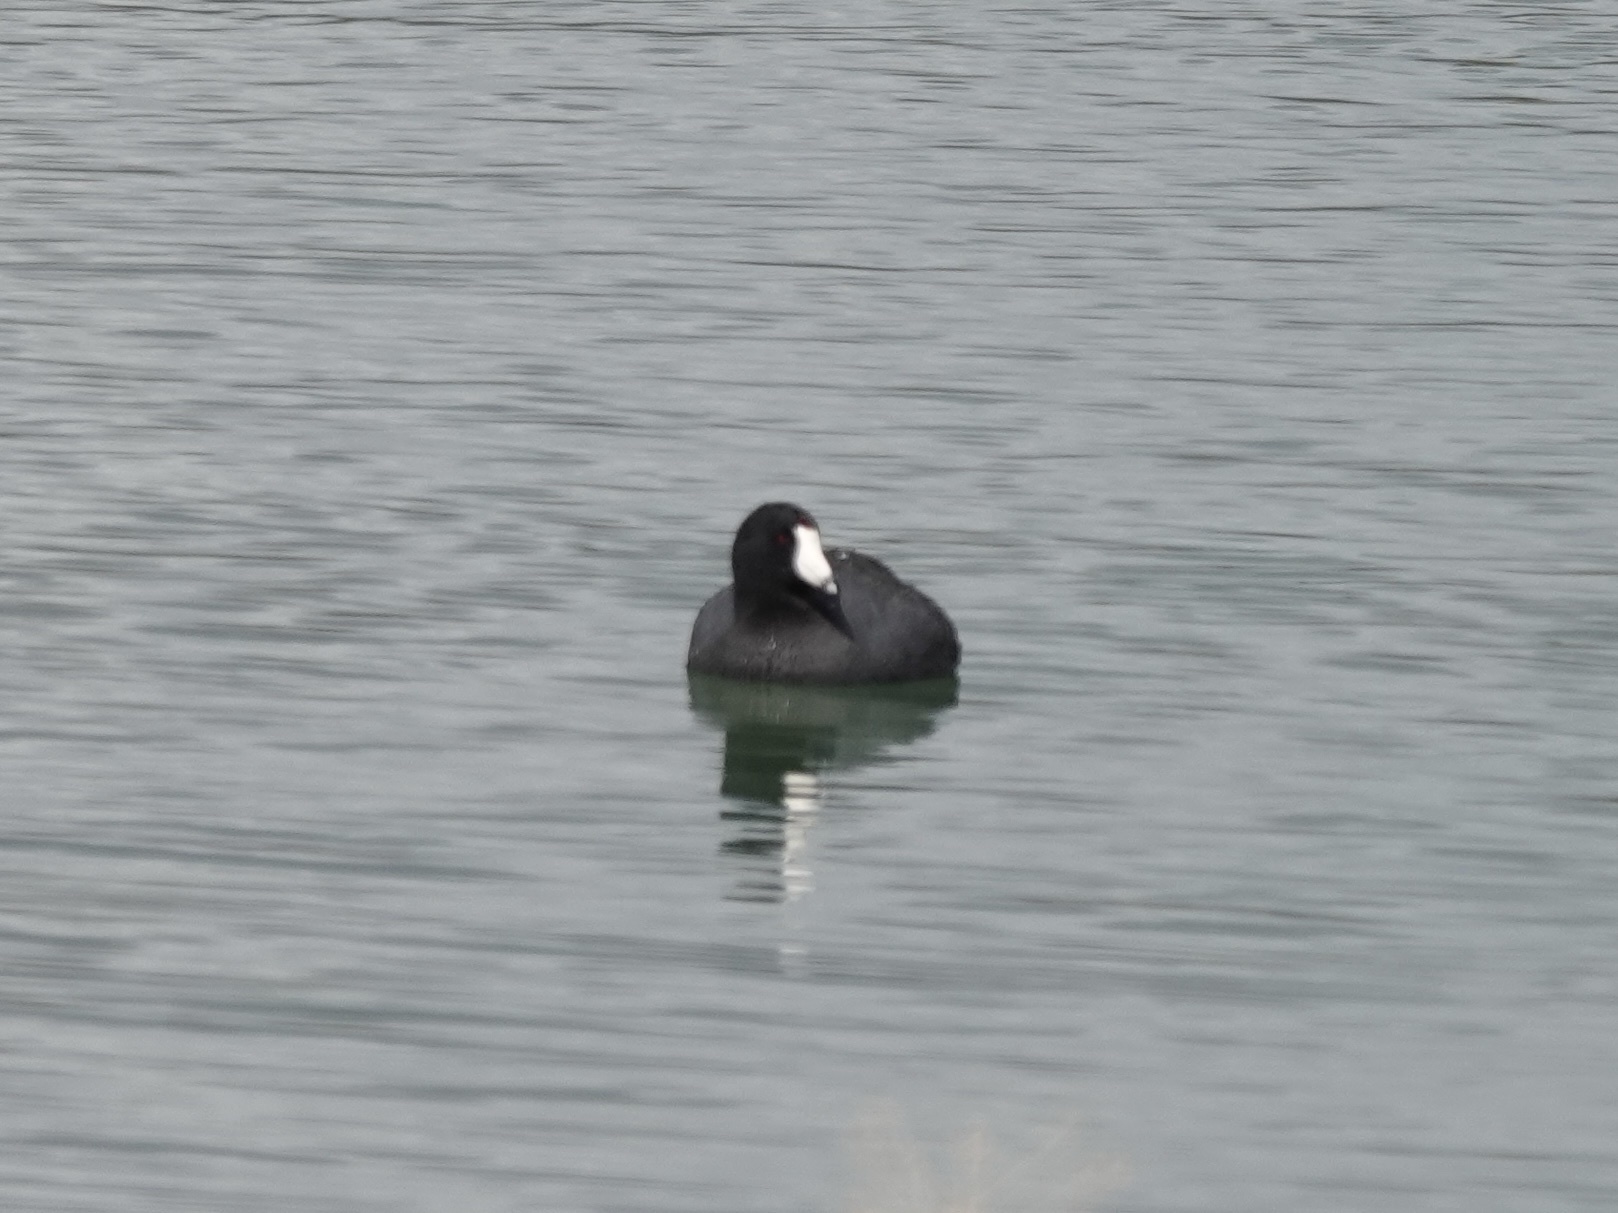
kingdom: Animalia
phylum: Chordata
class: Aves
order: Gruiformes
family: Rallidae
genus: Fulica
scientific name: Fulica americana
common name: American coot
